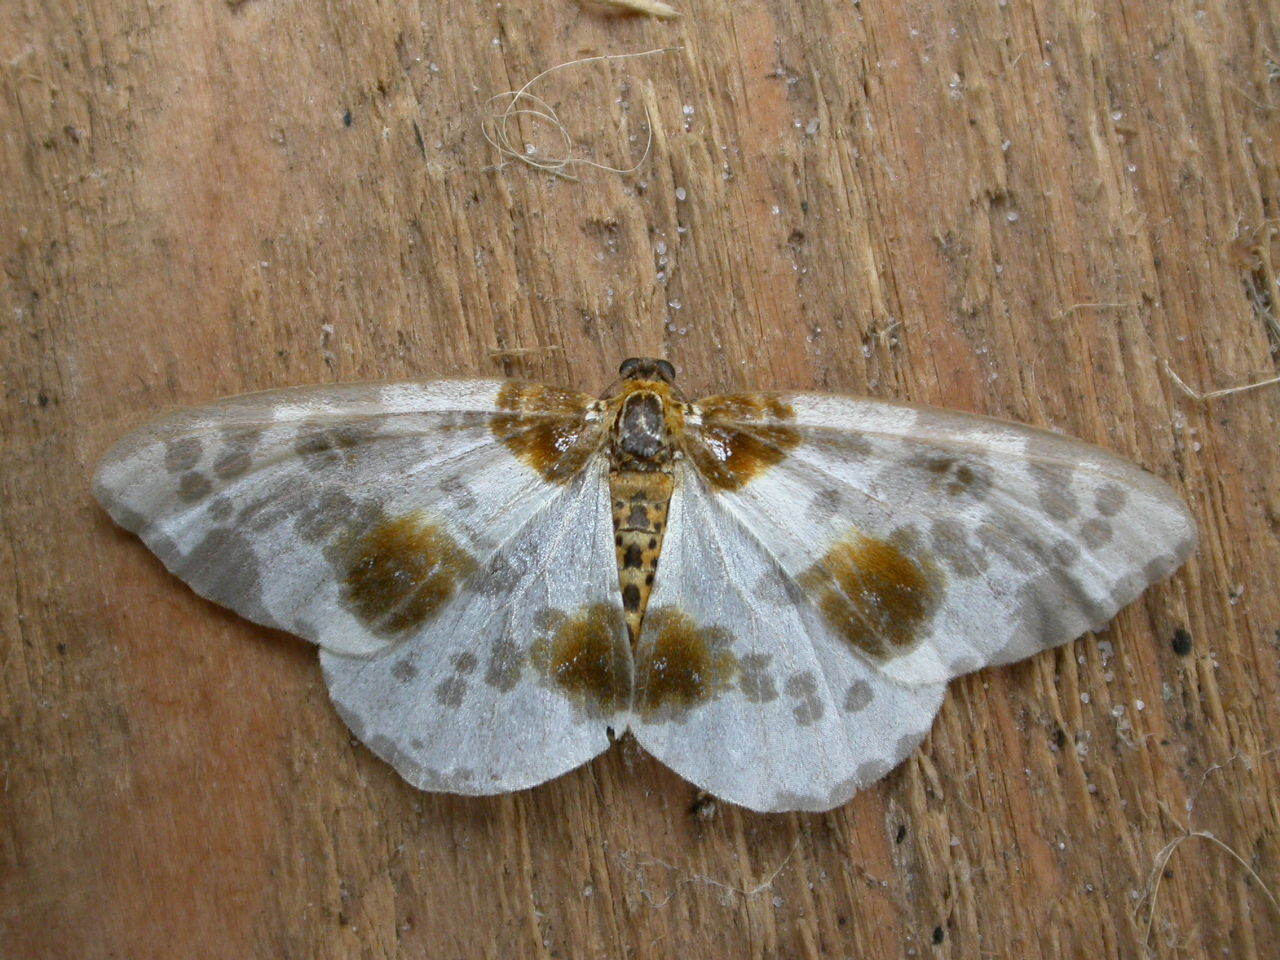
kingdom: Animalia
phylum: Arthropoda
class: Insecta
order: Lepidoptera
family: Geometridae
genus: Abraxas
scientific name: Abraxas sylvata
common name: Clouded magpie
